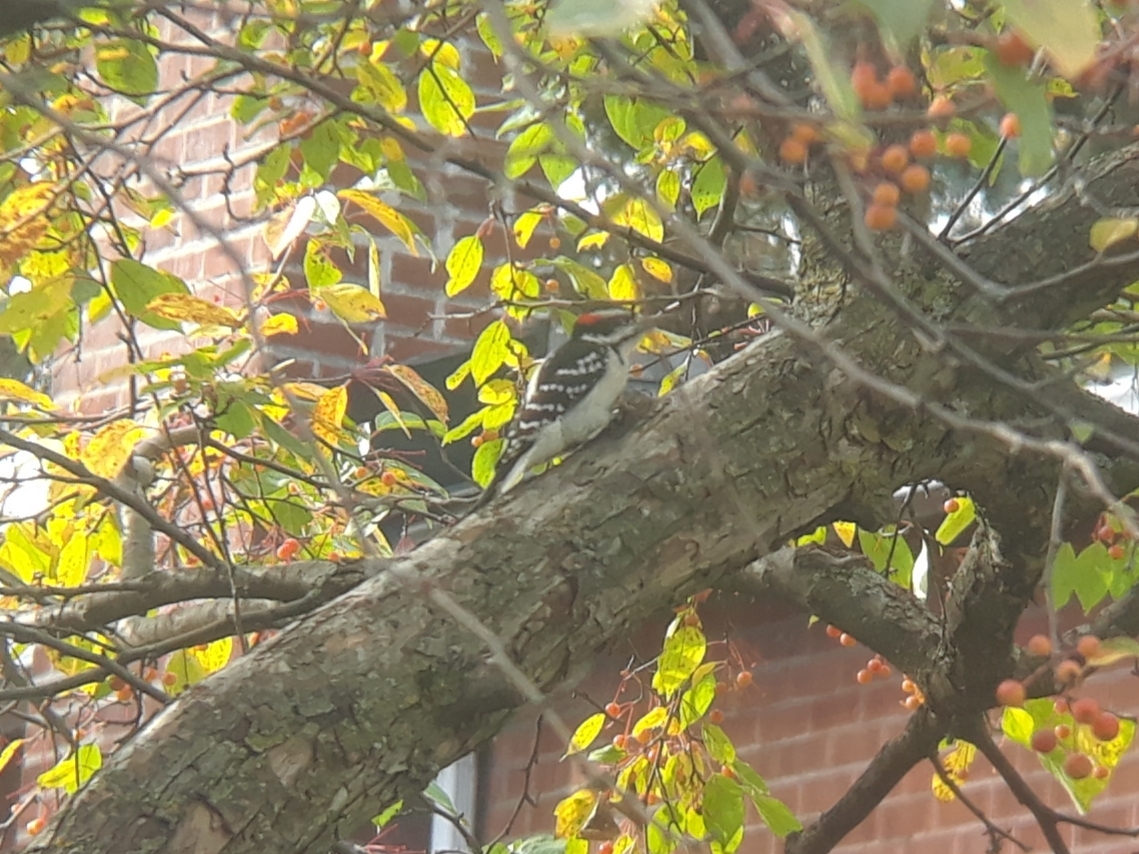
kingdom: Animalia
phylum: Chordata
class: Aves
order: Piciformes
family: Picidae
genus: Leuconotopicus
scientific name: Leuconotopicus villosus
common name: Hairy woodpecker
